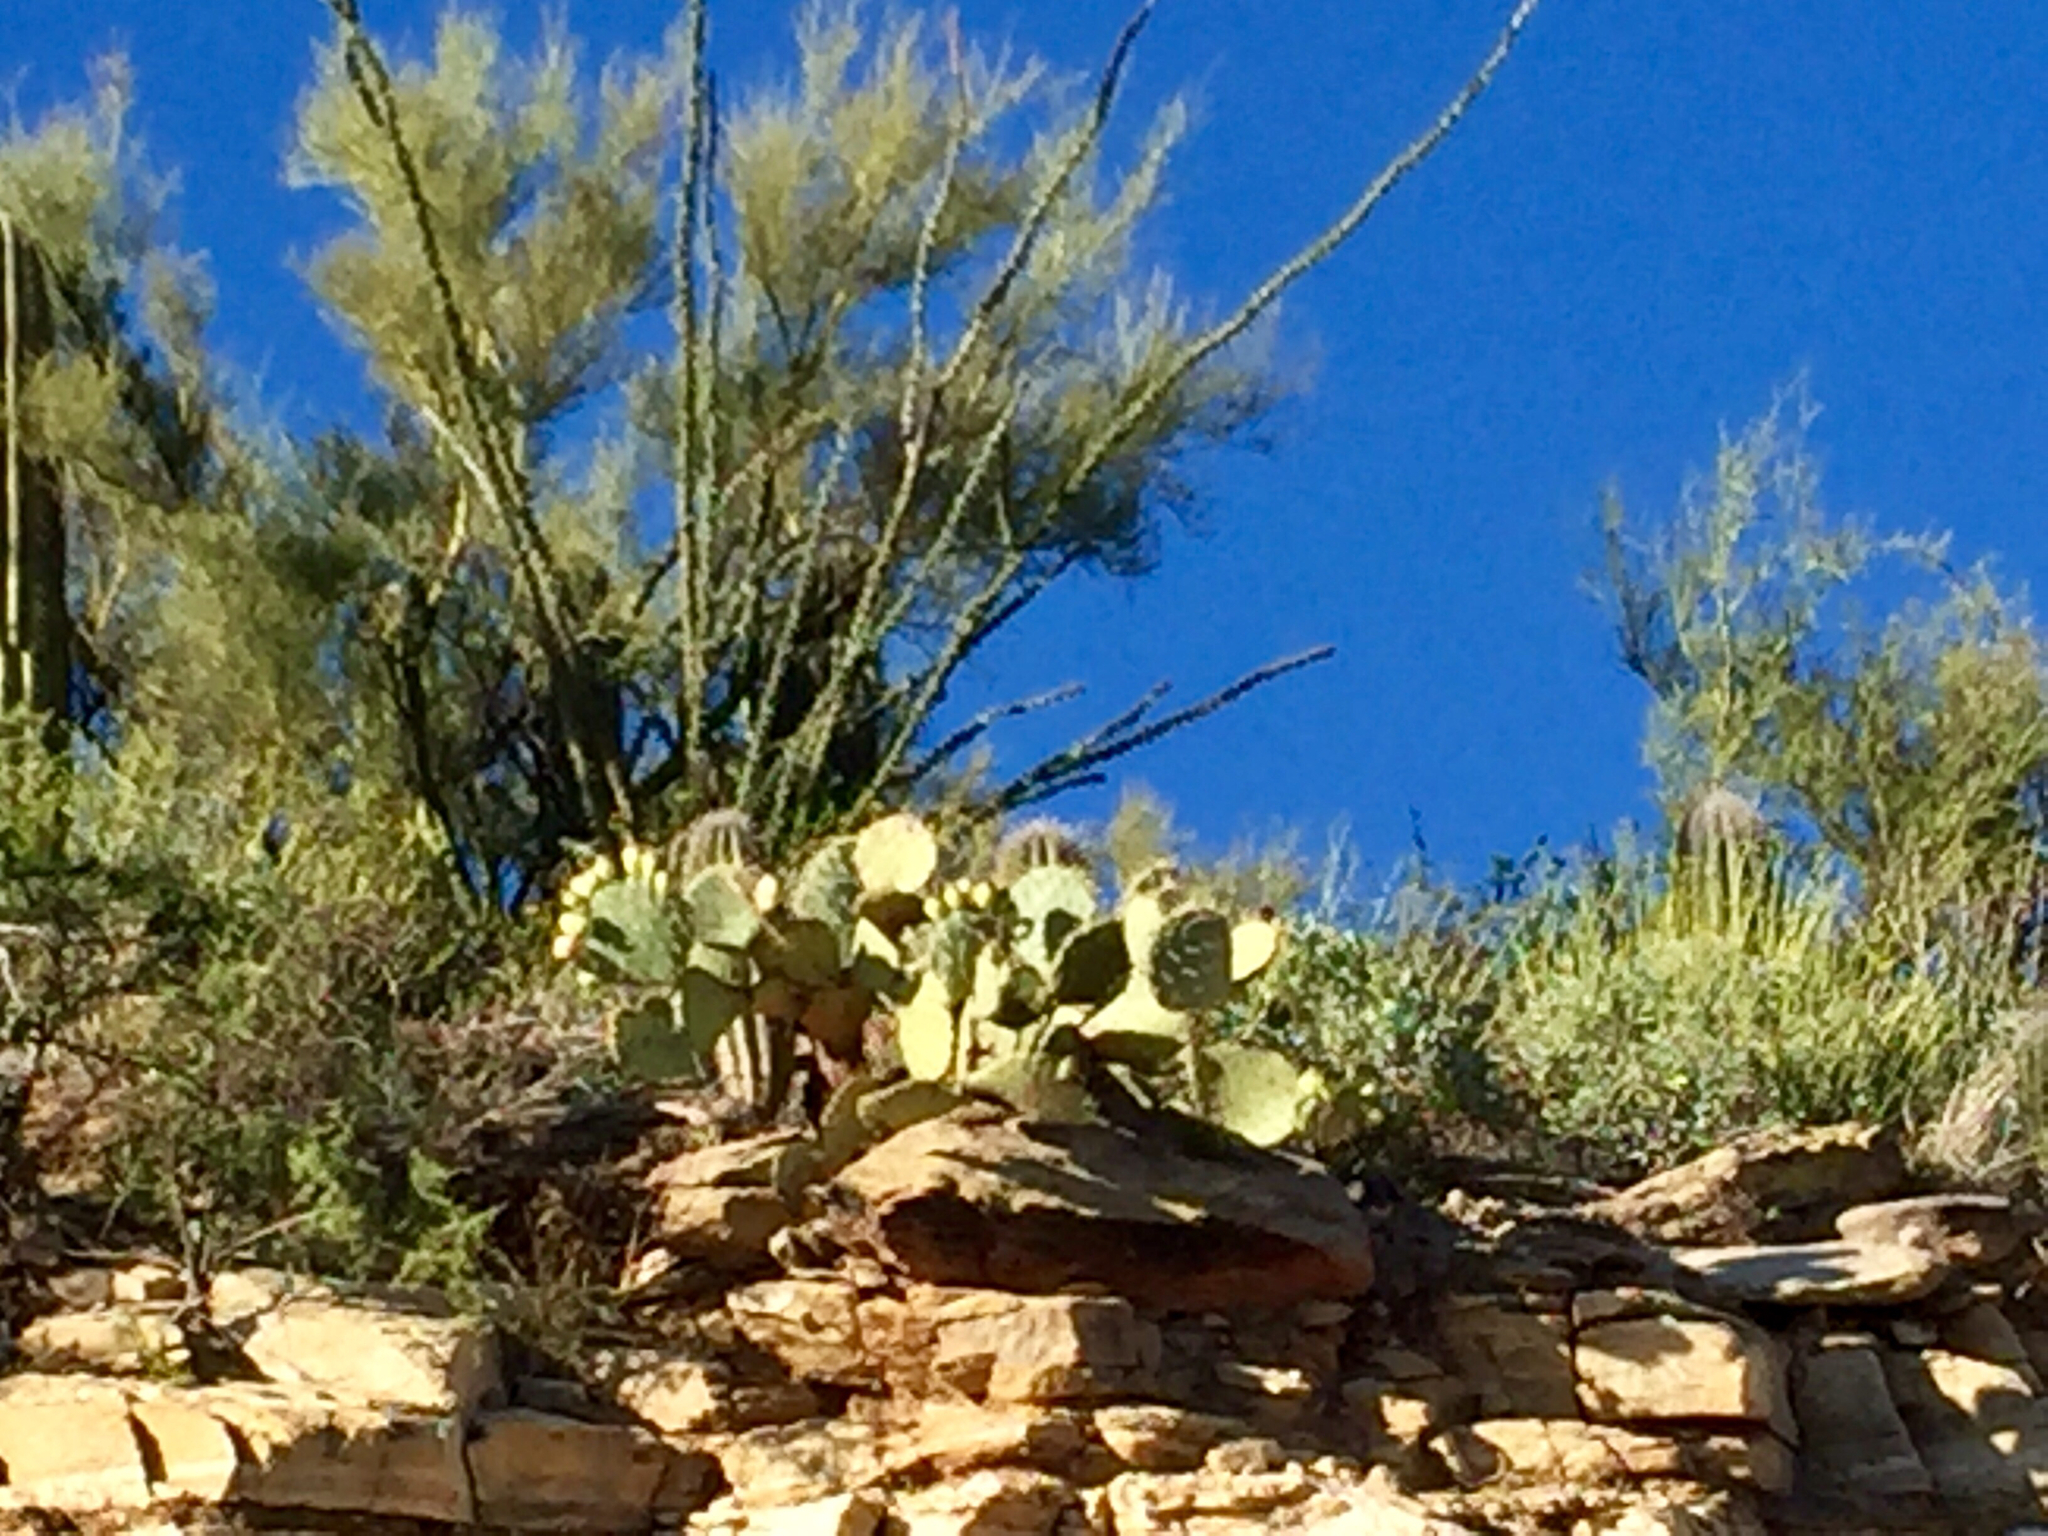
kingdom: Plantae
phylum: Tracheophyta
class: Magnoliopsida
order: Ericales
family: Fouquieriaceae
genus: Fouquieria
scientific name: Fouquieria splendens
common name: Vine-cactus
